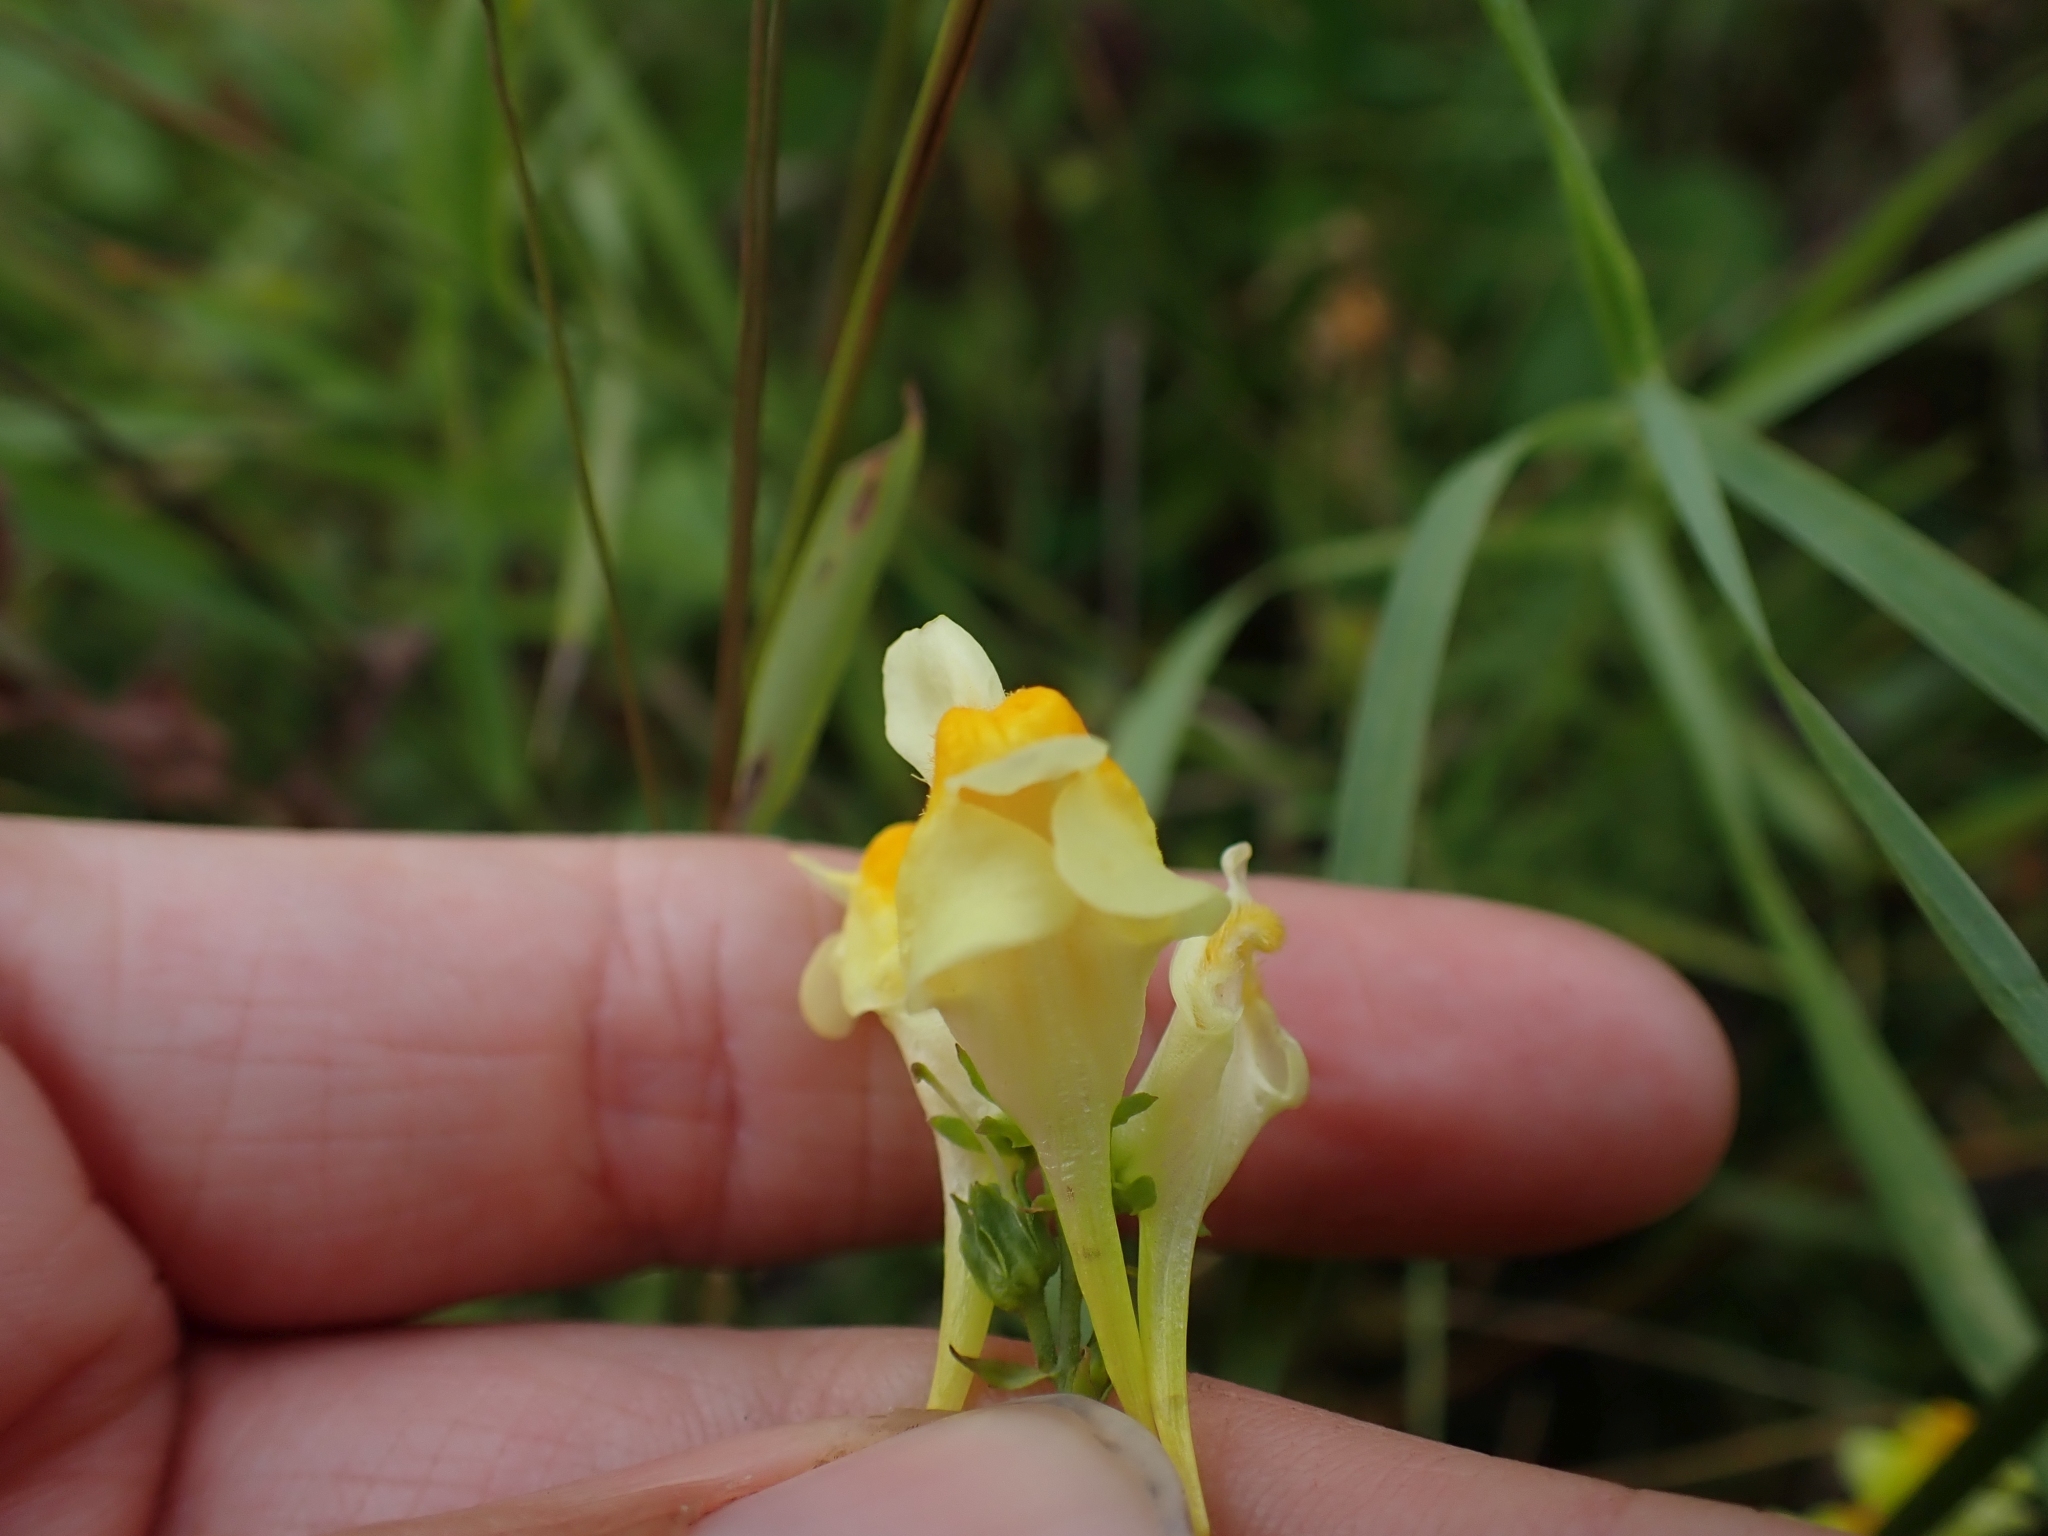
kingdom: Plantae
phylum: Tracheophyta
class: Magnoliopsida
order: Lamiales
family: Plantaginaceae
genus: Linaria
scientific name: Linaria vulgaris
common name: Butter and eggs
